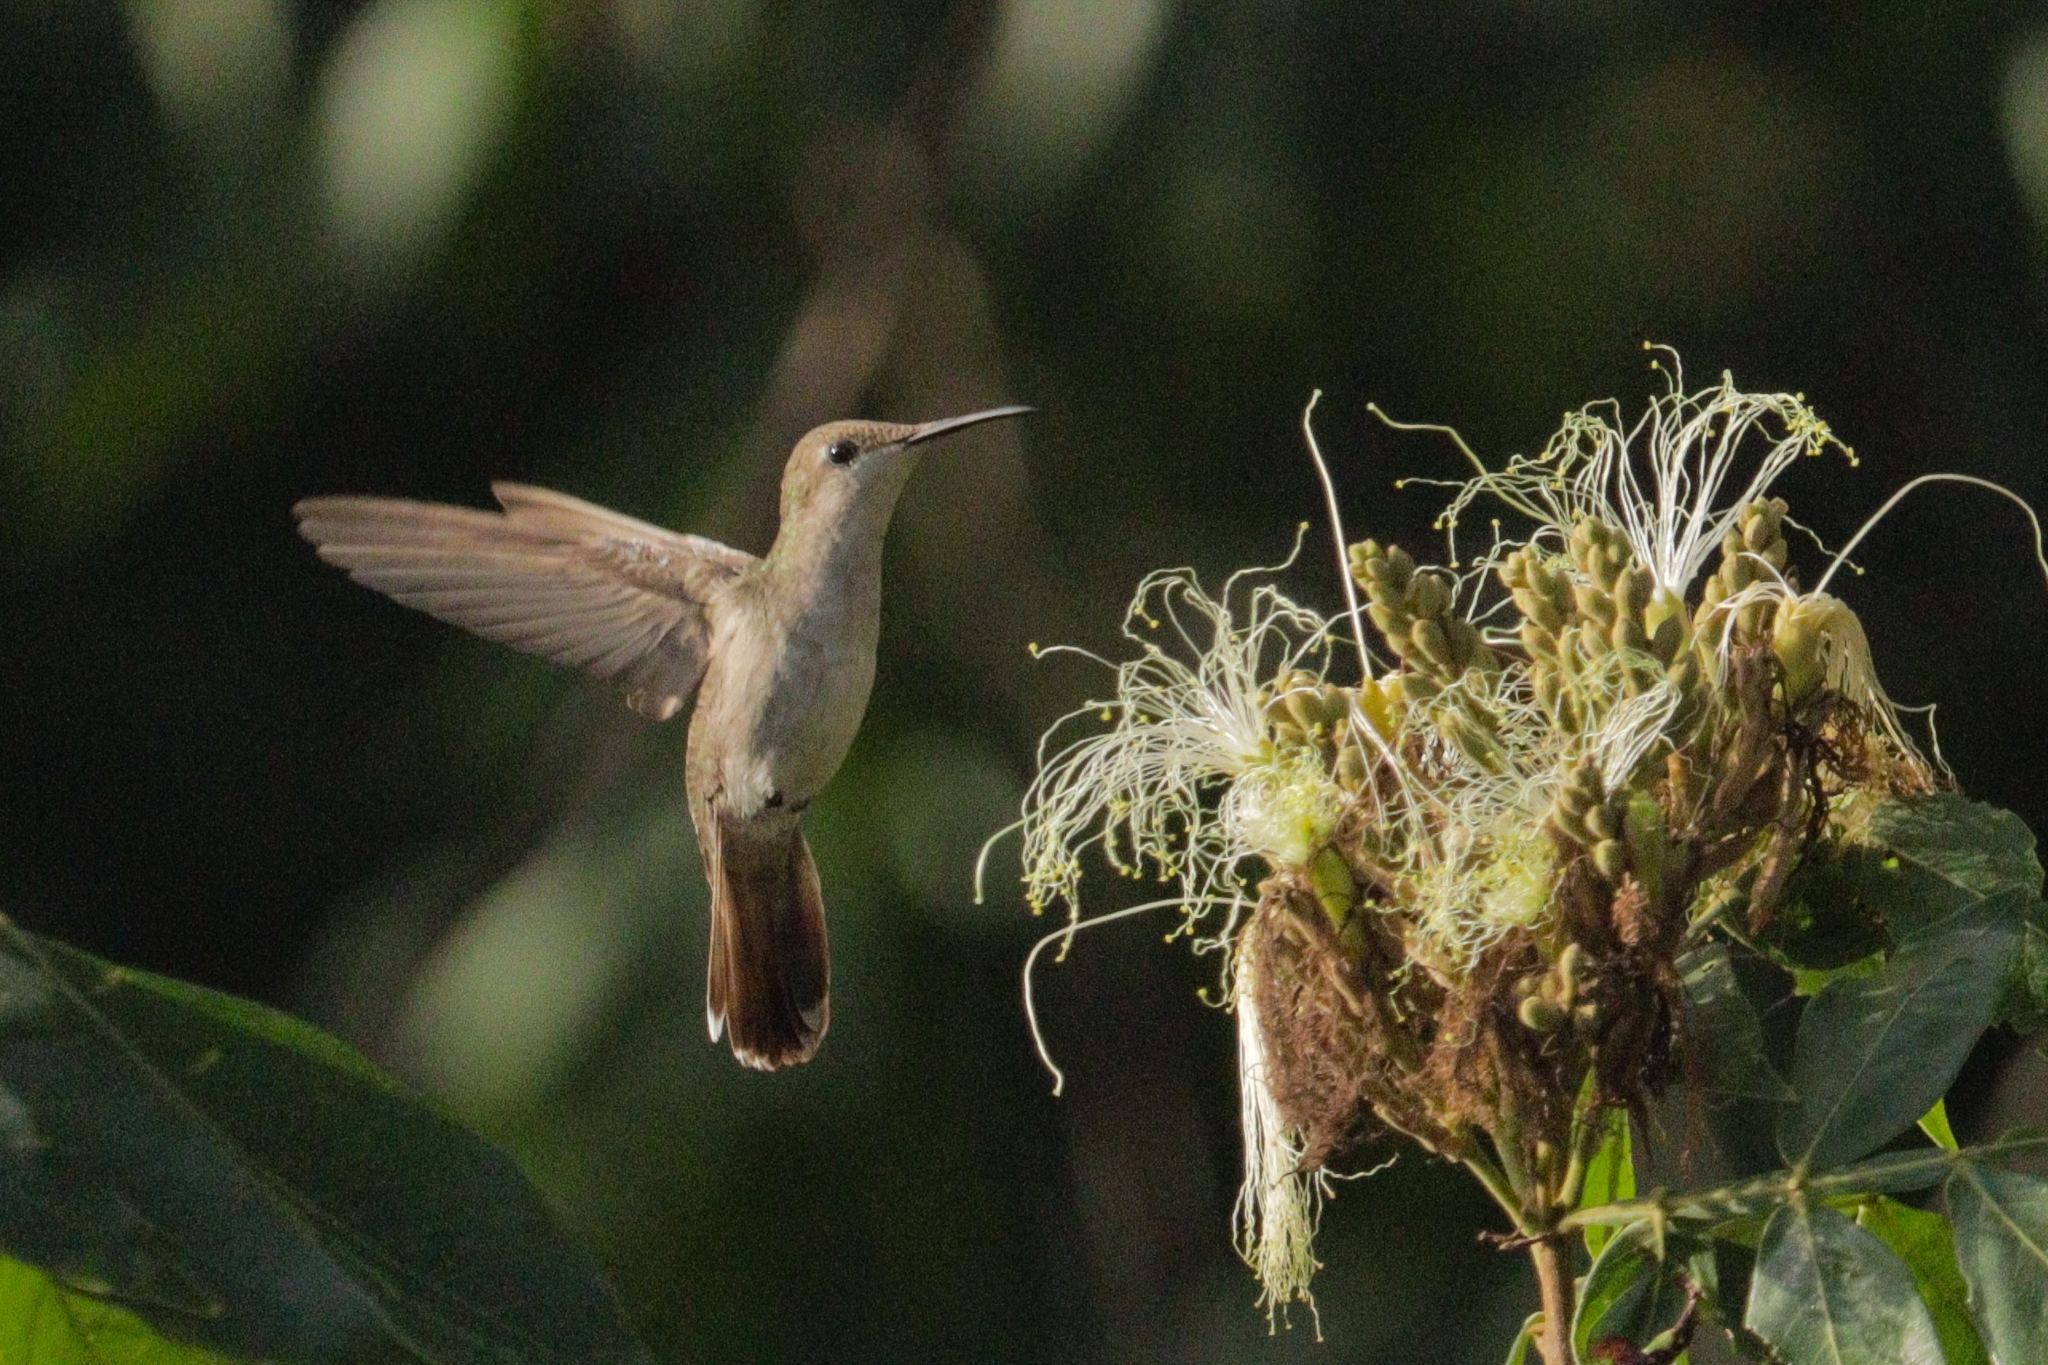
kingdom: Animalia
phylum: Chordata
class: Aves
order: Apodiformes
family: Trochilidae
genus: Chrysolampis
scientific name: Chrysolampis mosquitus
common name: Ruby-topaz hummingbird
